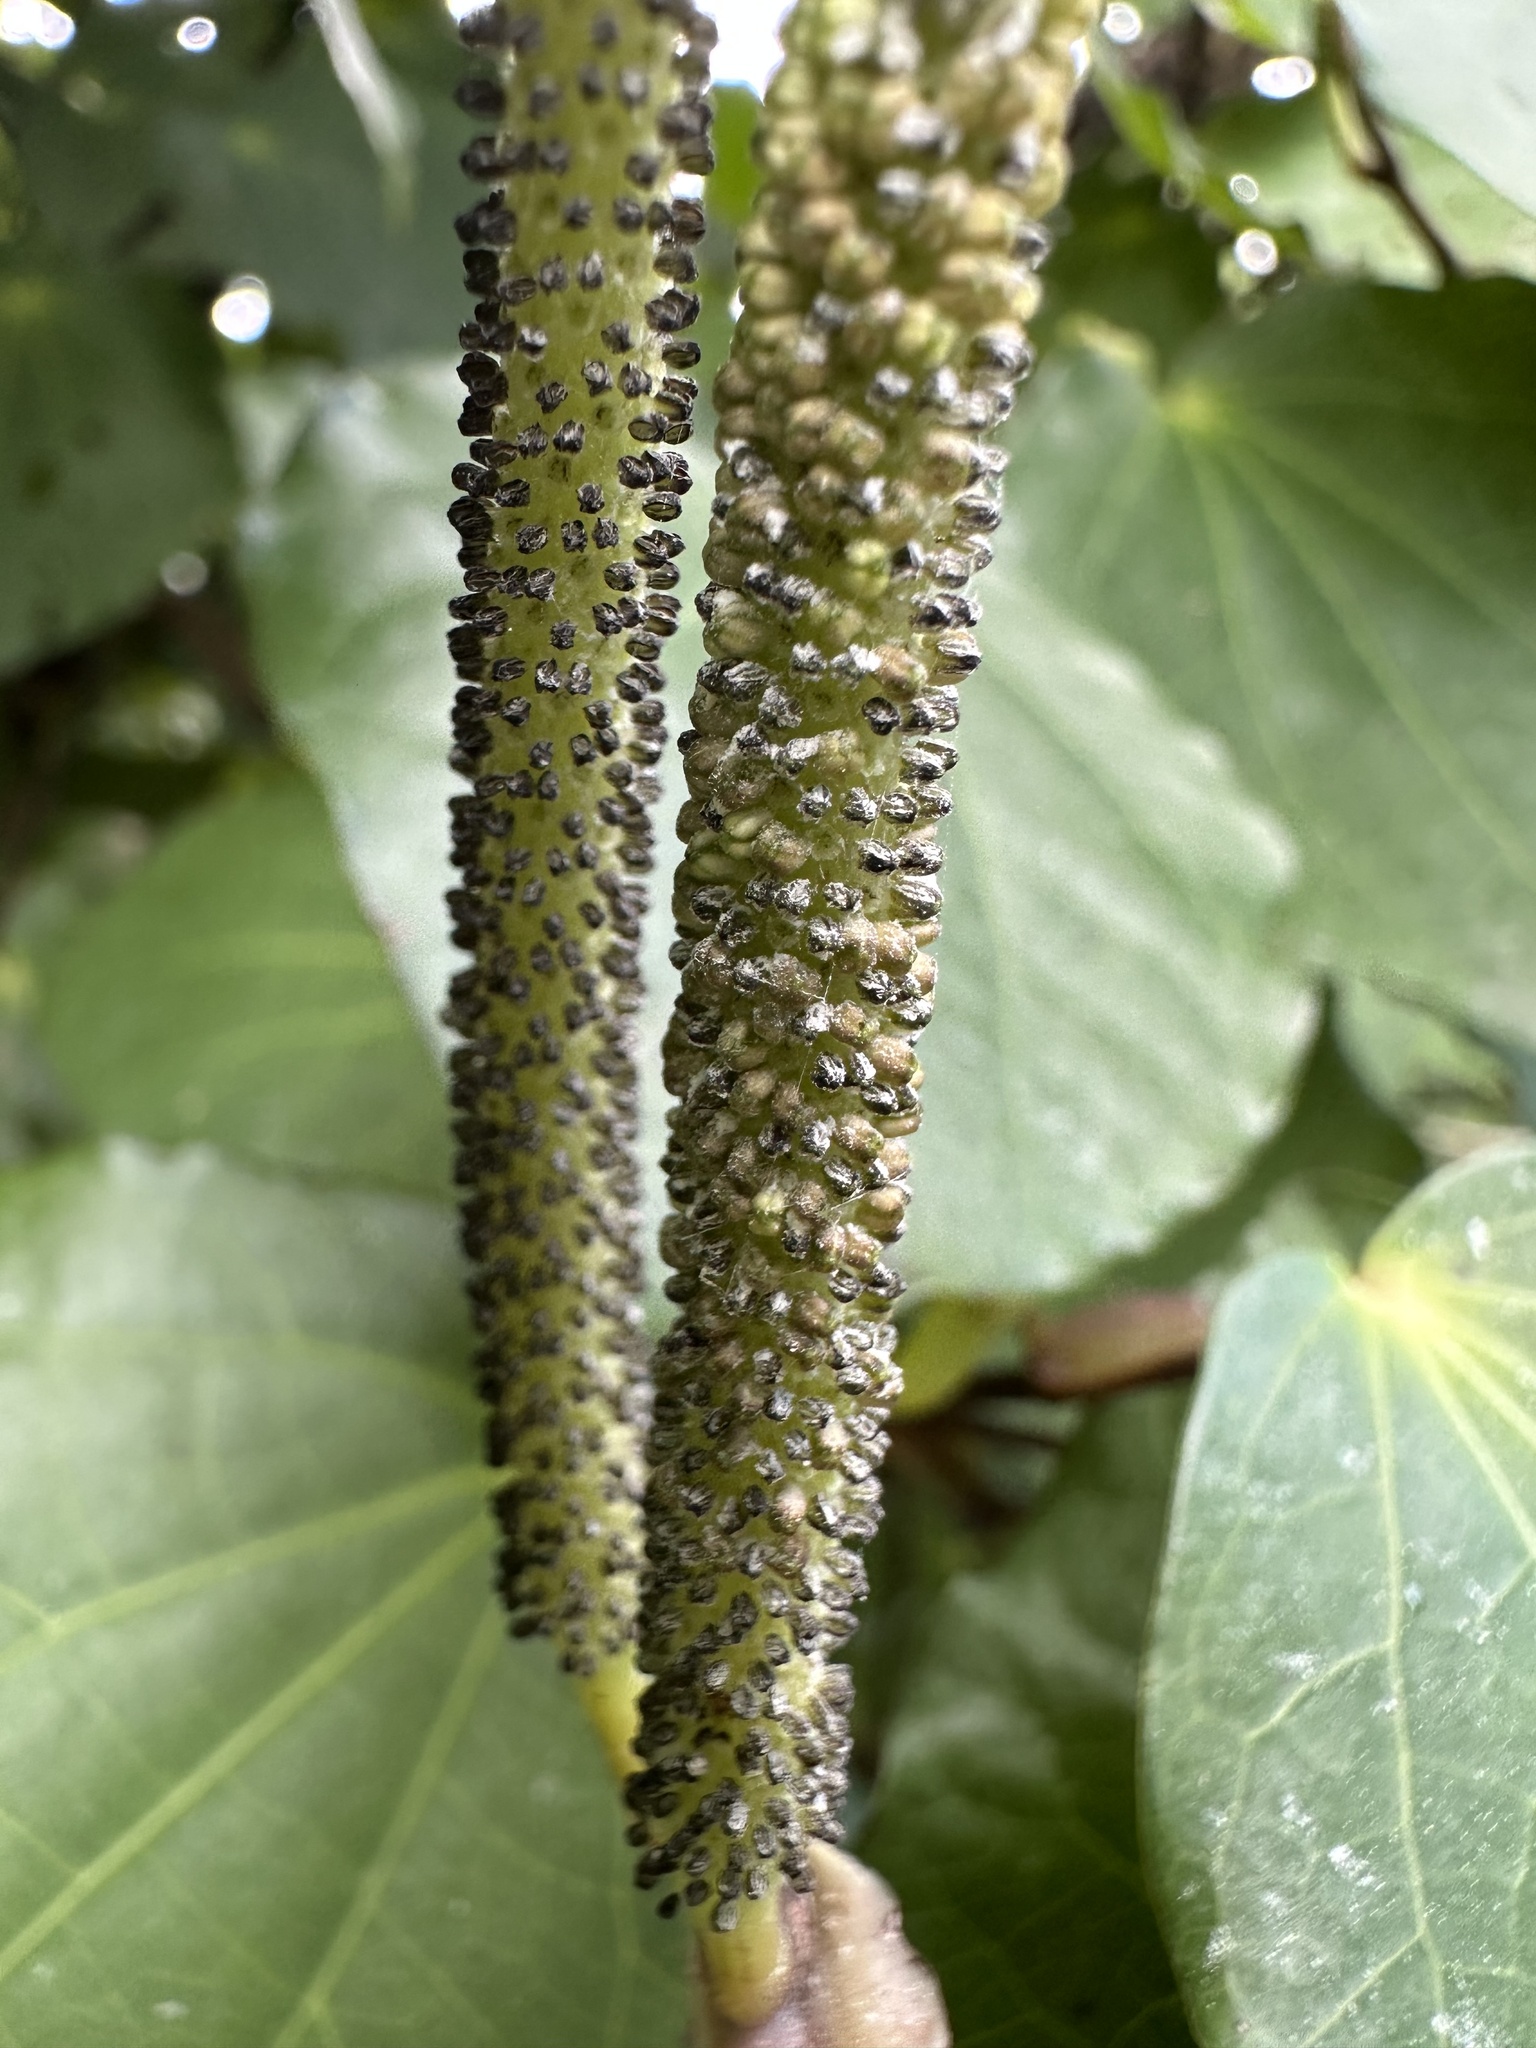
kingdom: Plantae
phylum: Tracheophyta
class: Magnoliopsida
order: Piperales
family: Piperaceae
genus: Macropiper
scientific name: Macropiper excelsum
